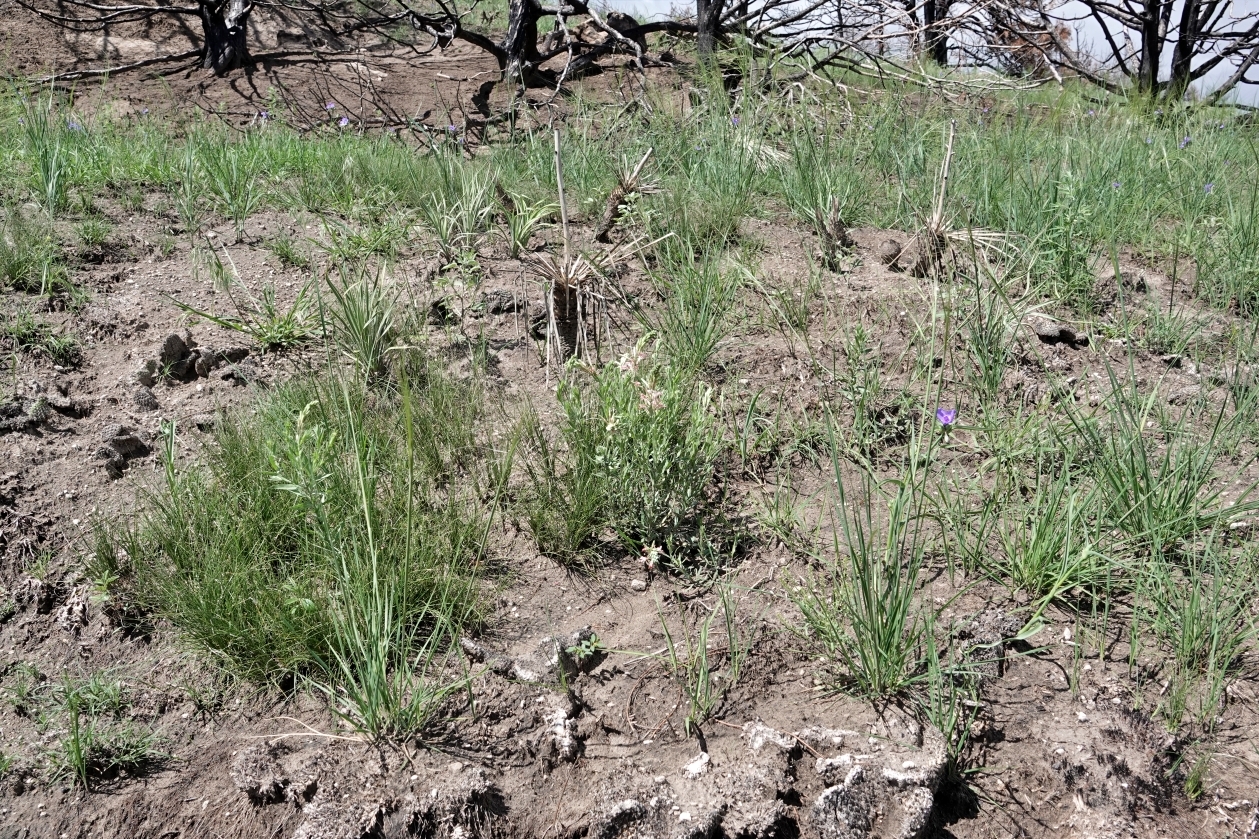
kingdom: Plantae
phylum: Tracheophyta
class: Magnoliopsida
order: Myrtales
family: Onagraceae
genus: Oenothera
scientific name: Oenothera suffrutescens
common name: Scarlet beeblossom
